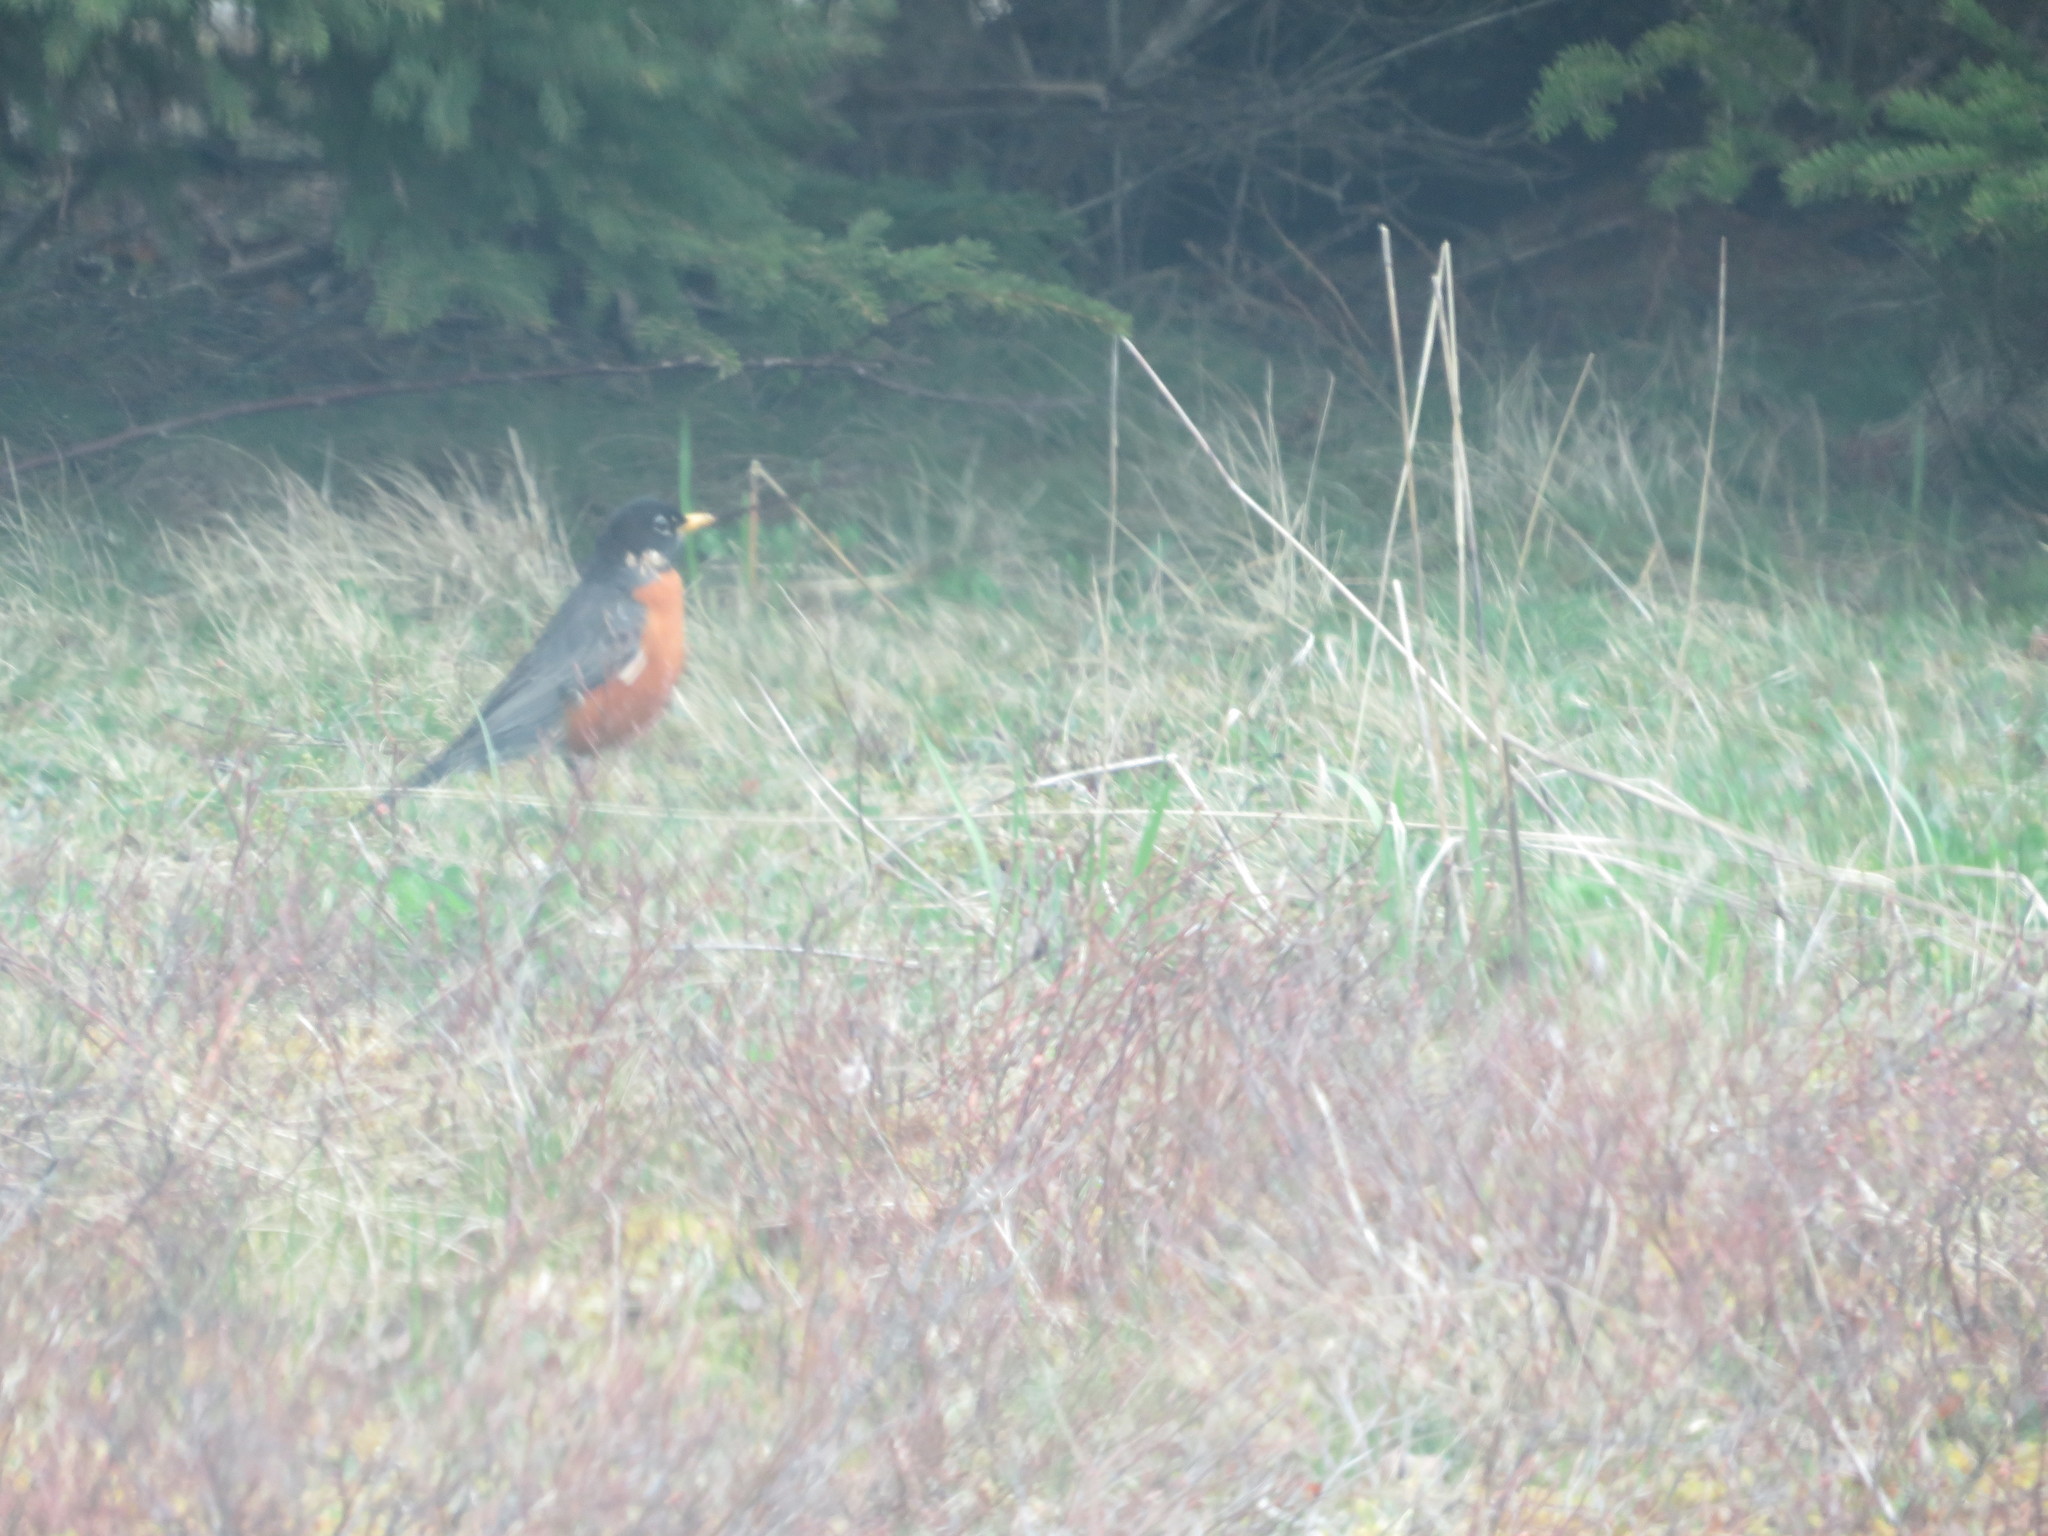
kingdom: Animalia
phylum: Chordata
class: Aves
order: Passeriformes
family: Turdidae
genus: Turdus
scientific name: Turdus migratorius
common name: American robin
